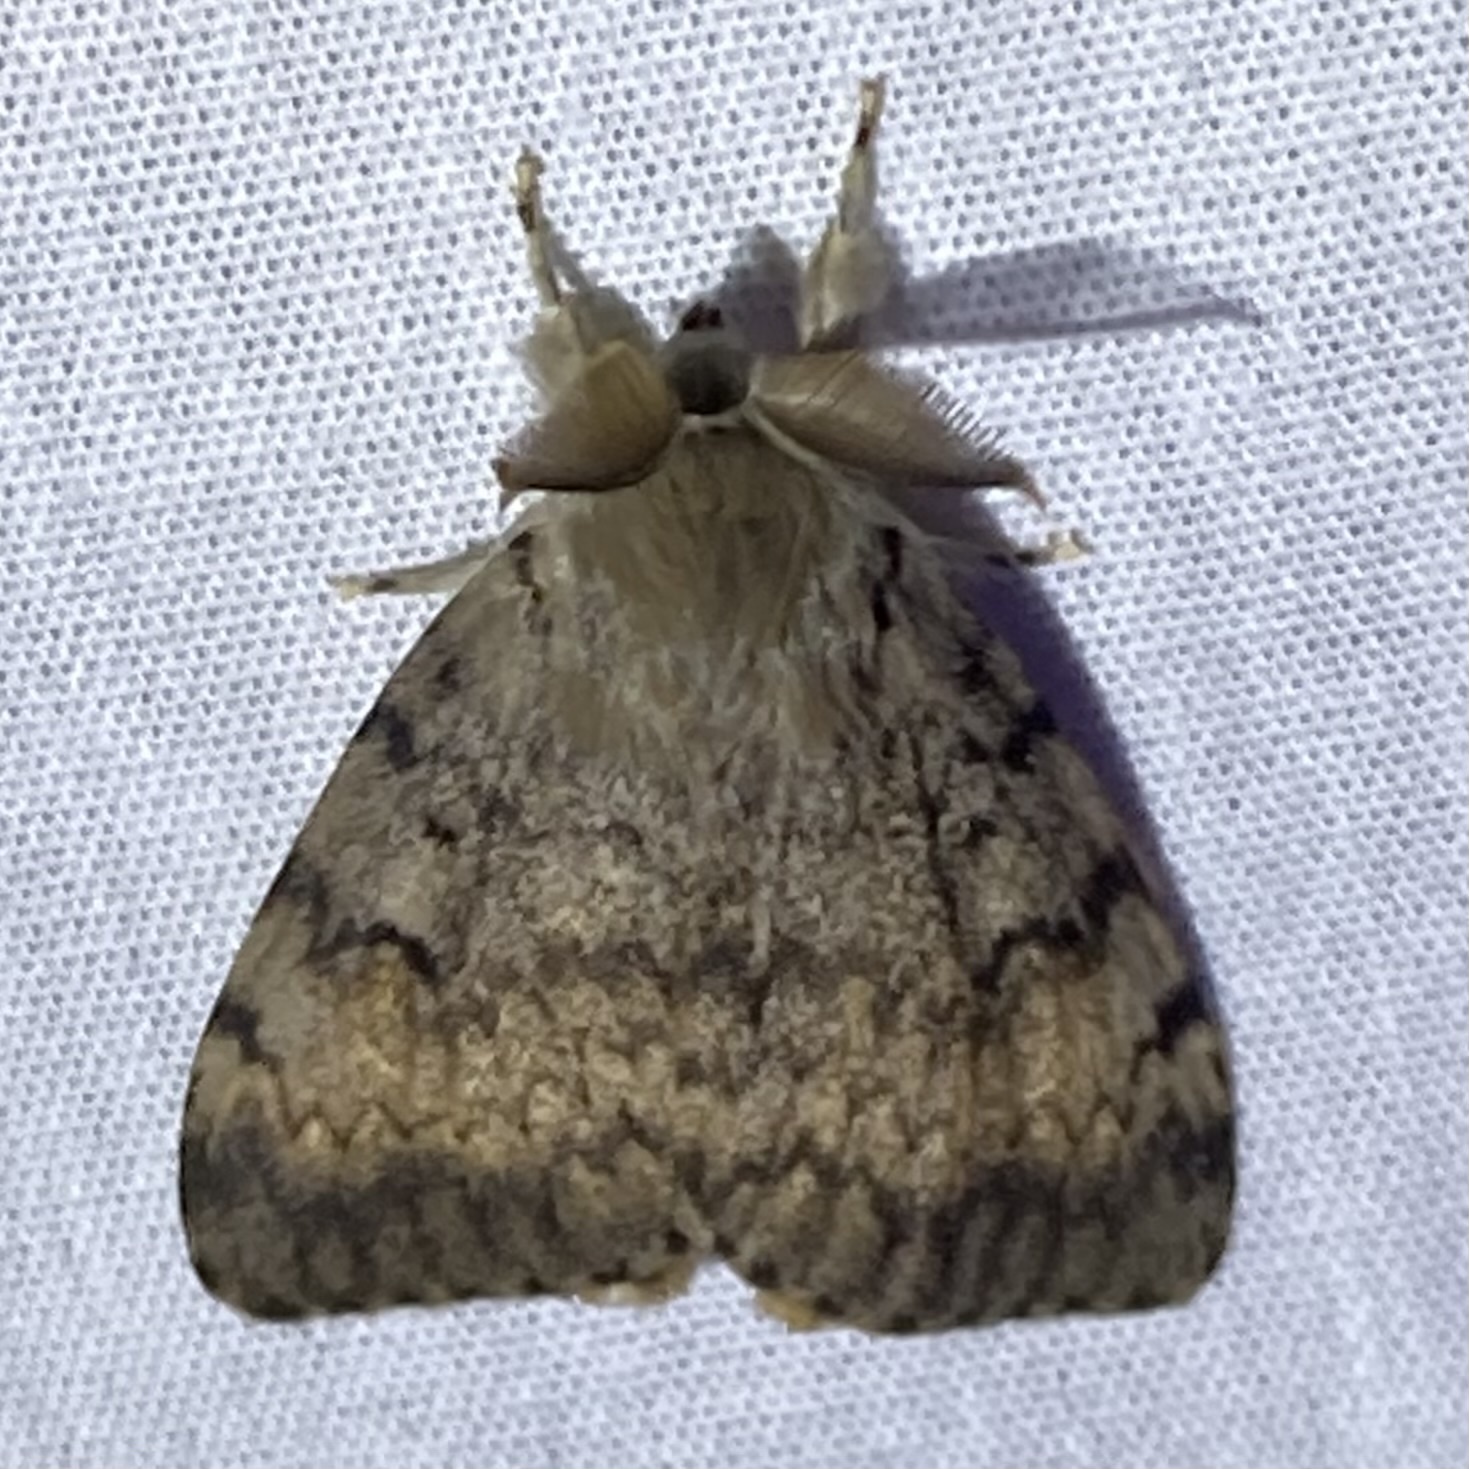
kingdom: Animalia
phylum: Arthropoda
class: Insecta
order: Lepidoptera
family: Erebidae
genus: Lymantria
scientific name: Lymantria dispar
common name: Gypsy moth
